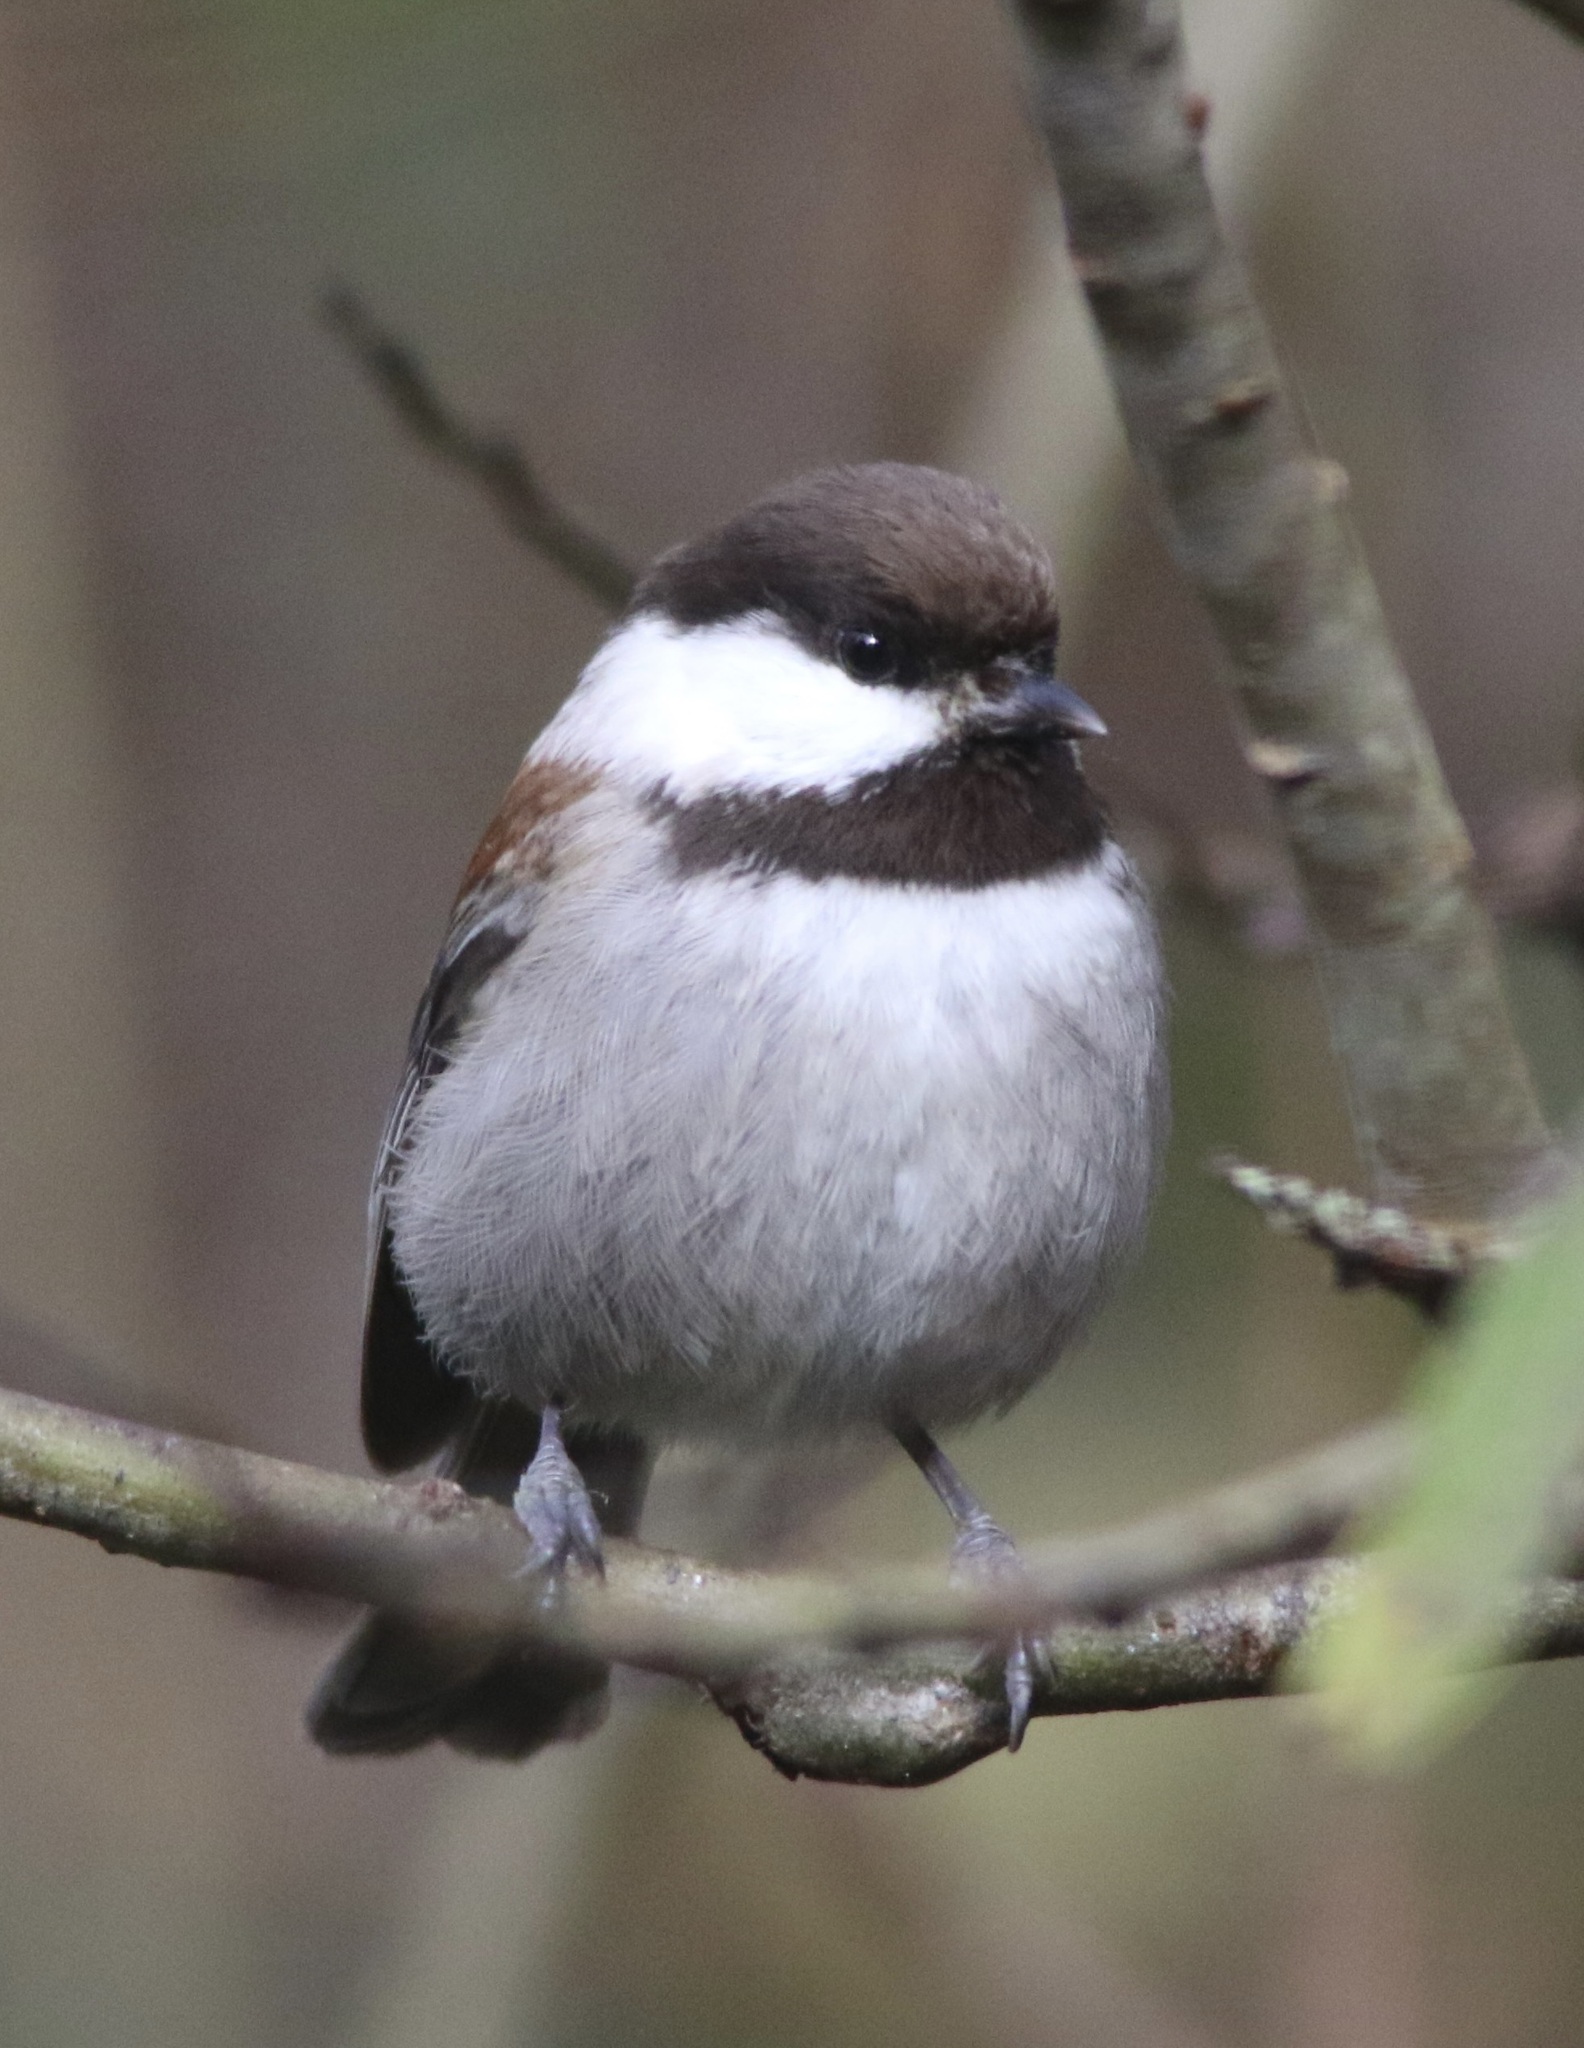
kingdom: Animalia
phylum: Chordata
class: Aves
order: Passeriformes
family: Paridae
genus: Poecile
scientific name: Poecile rufescens
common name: Chestnut-backed chickadee
